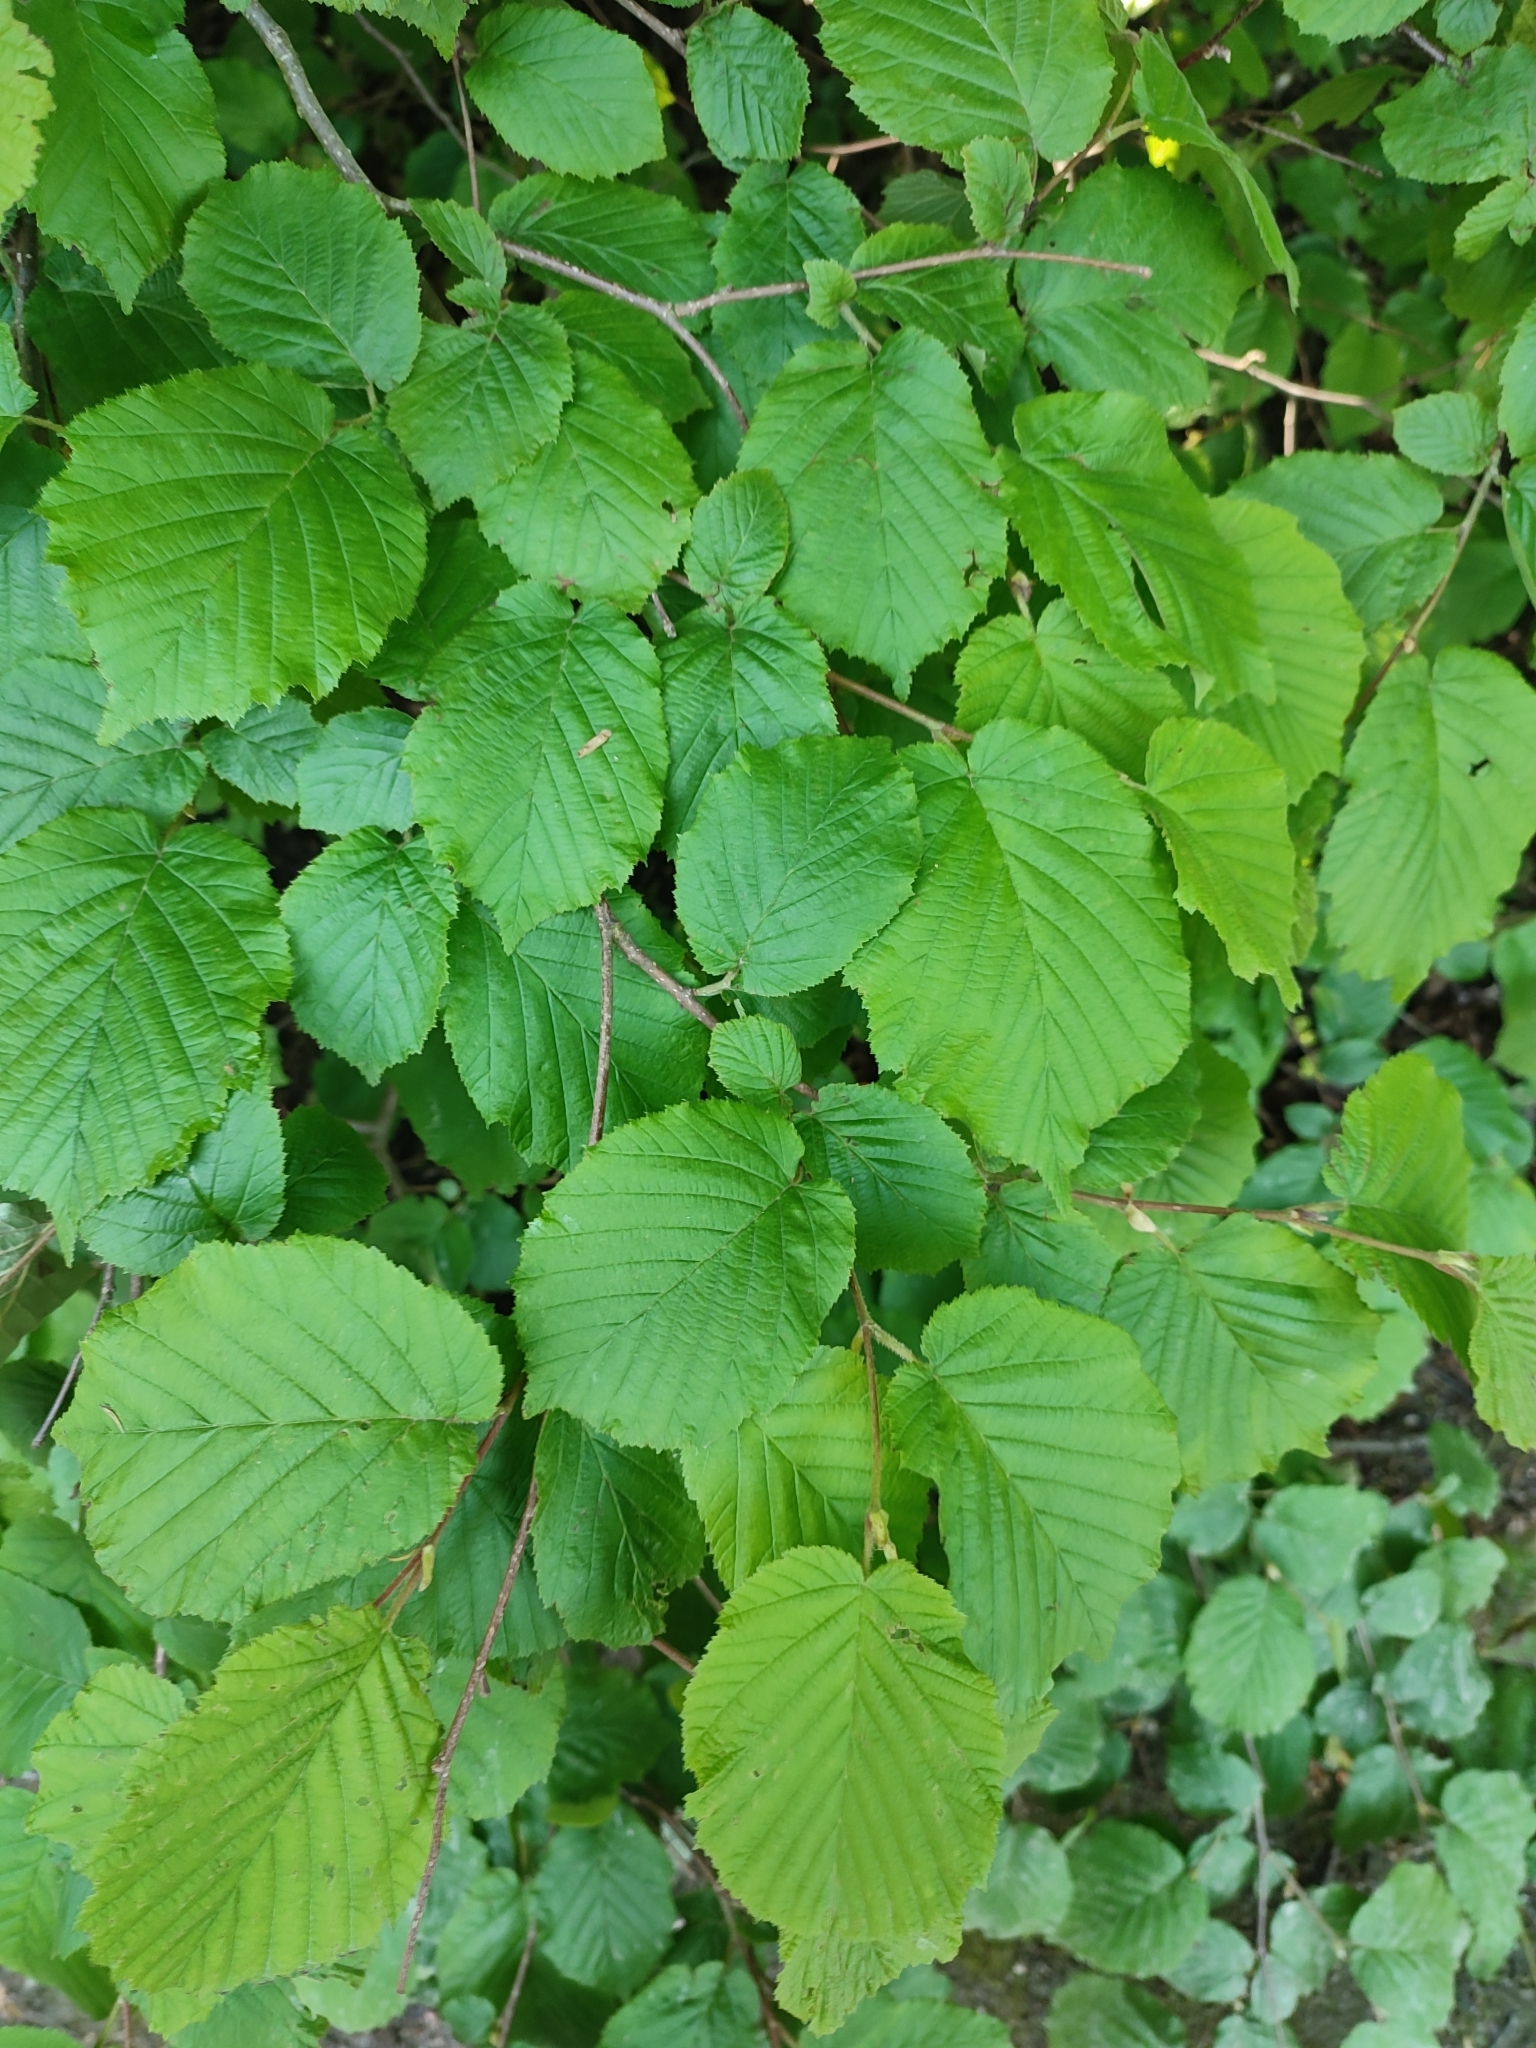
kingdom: Plantae
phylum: Tracheophyta
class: Magnoliopsida
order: Fagales
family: Betulaceae
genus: Corylus
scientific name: Corylus avellana
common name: European hazel
